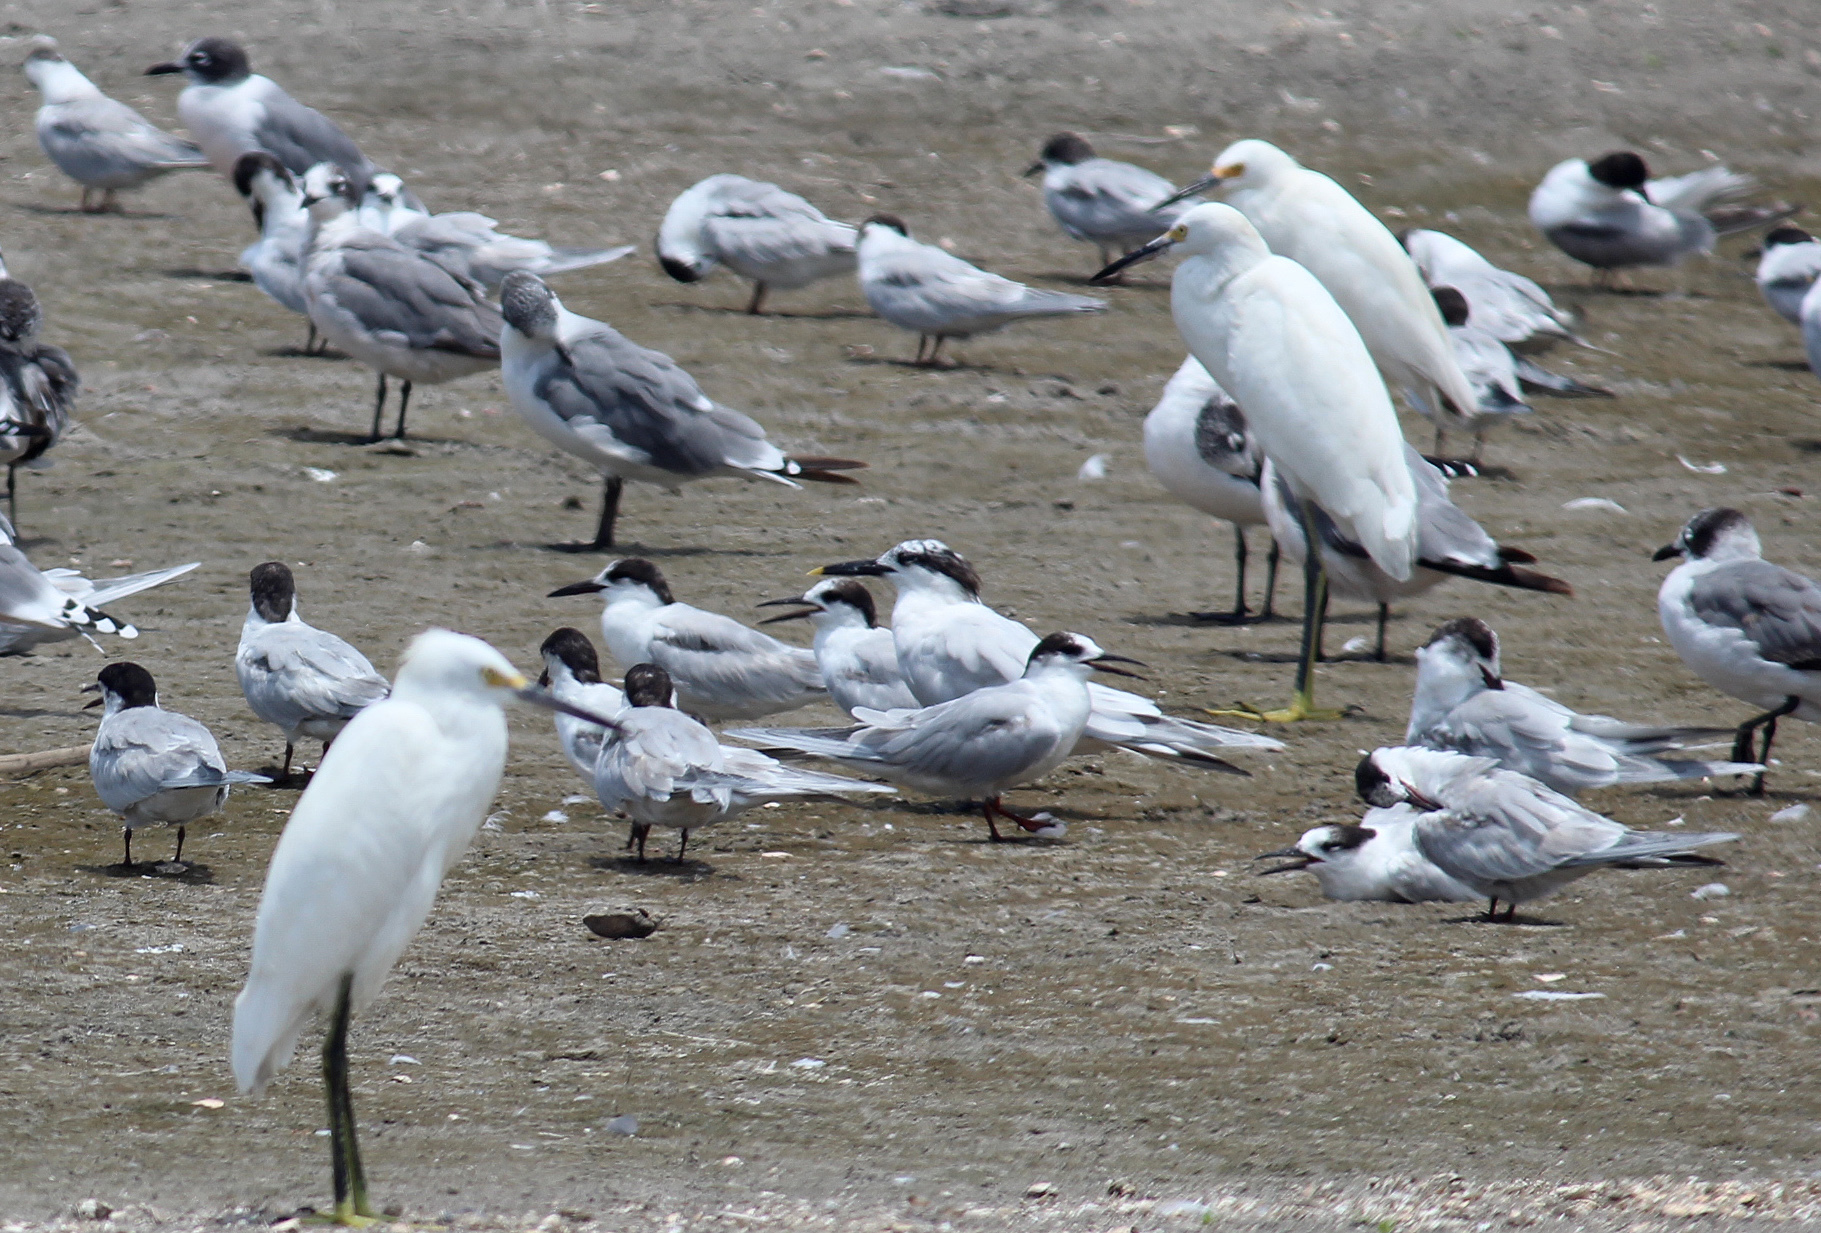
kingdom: Animalia
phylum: Chordata
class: Aves
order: Charadriiformes
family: Laridae
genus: Thalasseus
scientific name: Thalasseus sandvicensis
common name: Sandwich tern
